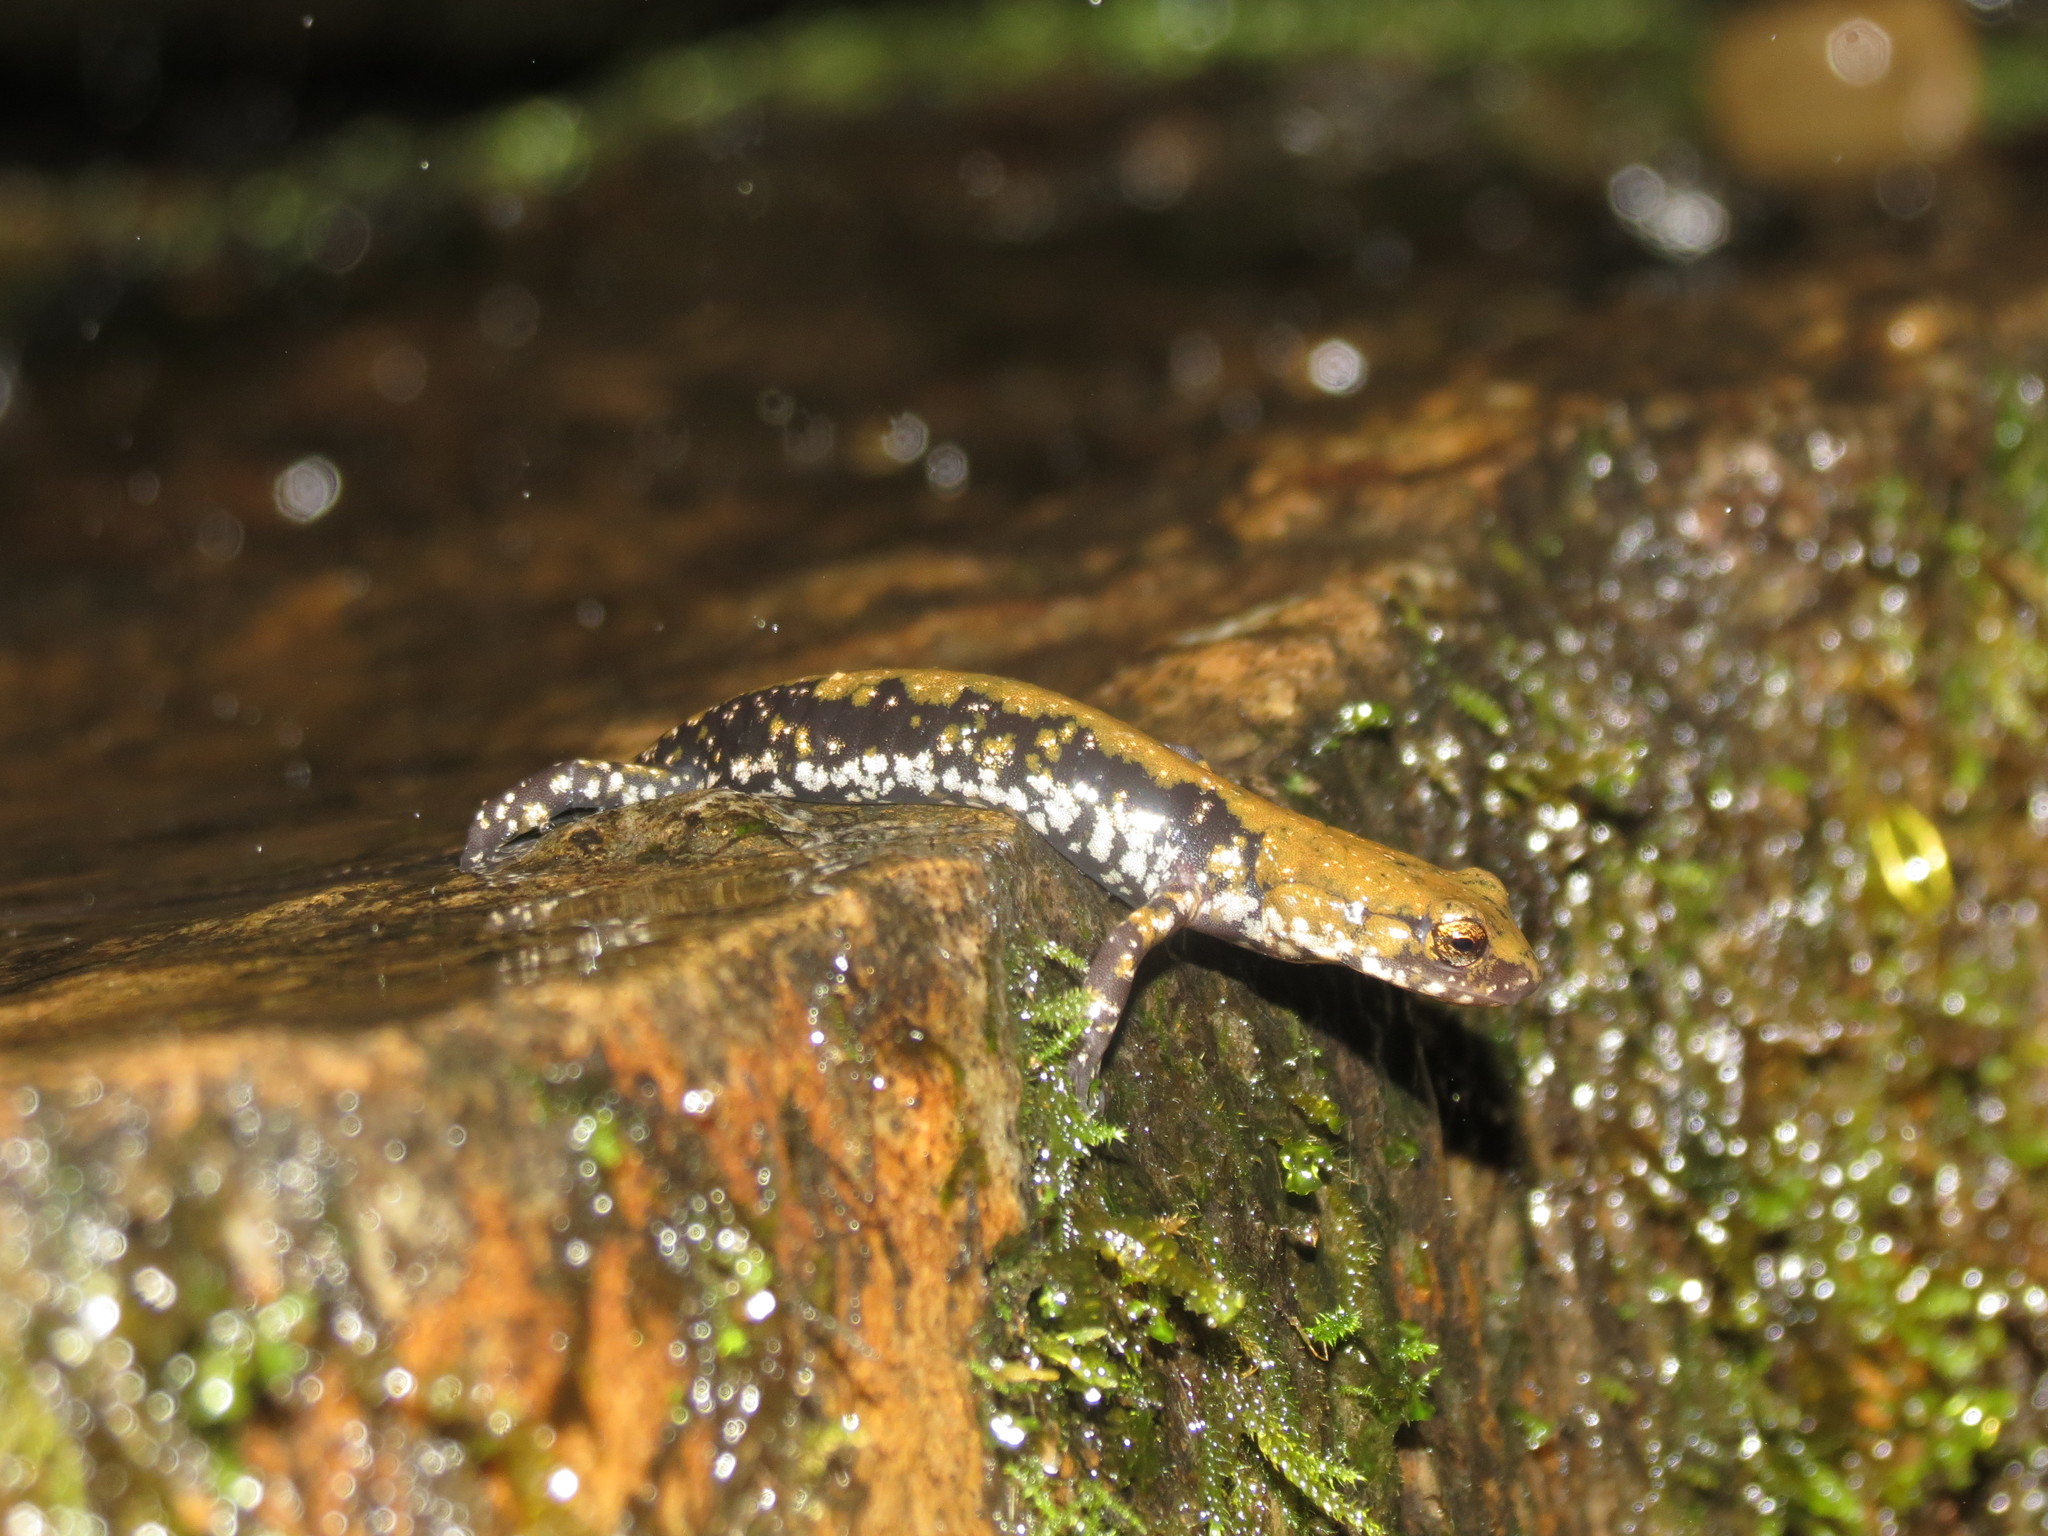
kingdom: Animalia
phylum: Chordata
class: Amphibia
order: Caudata
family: Plethodontidae
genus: Plethodon
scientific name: Plethodon petraeus
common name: Pigeon mountain salamander
